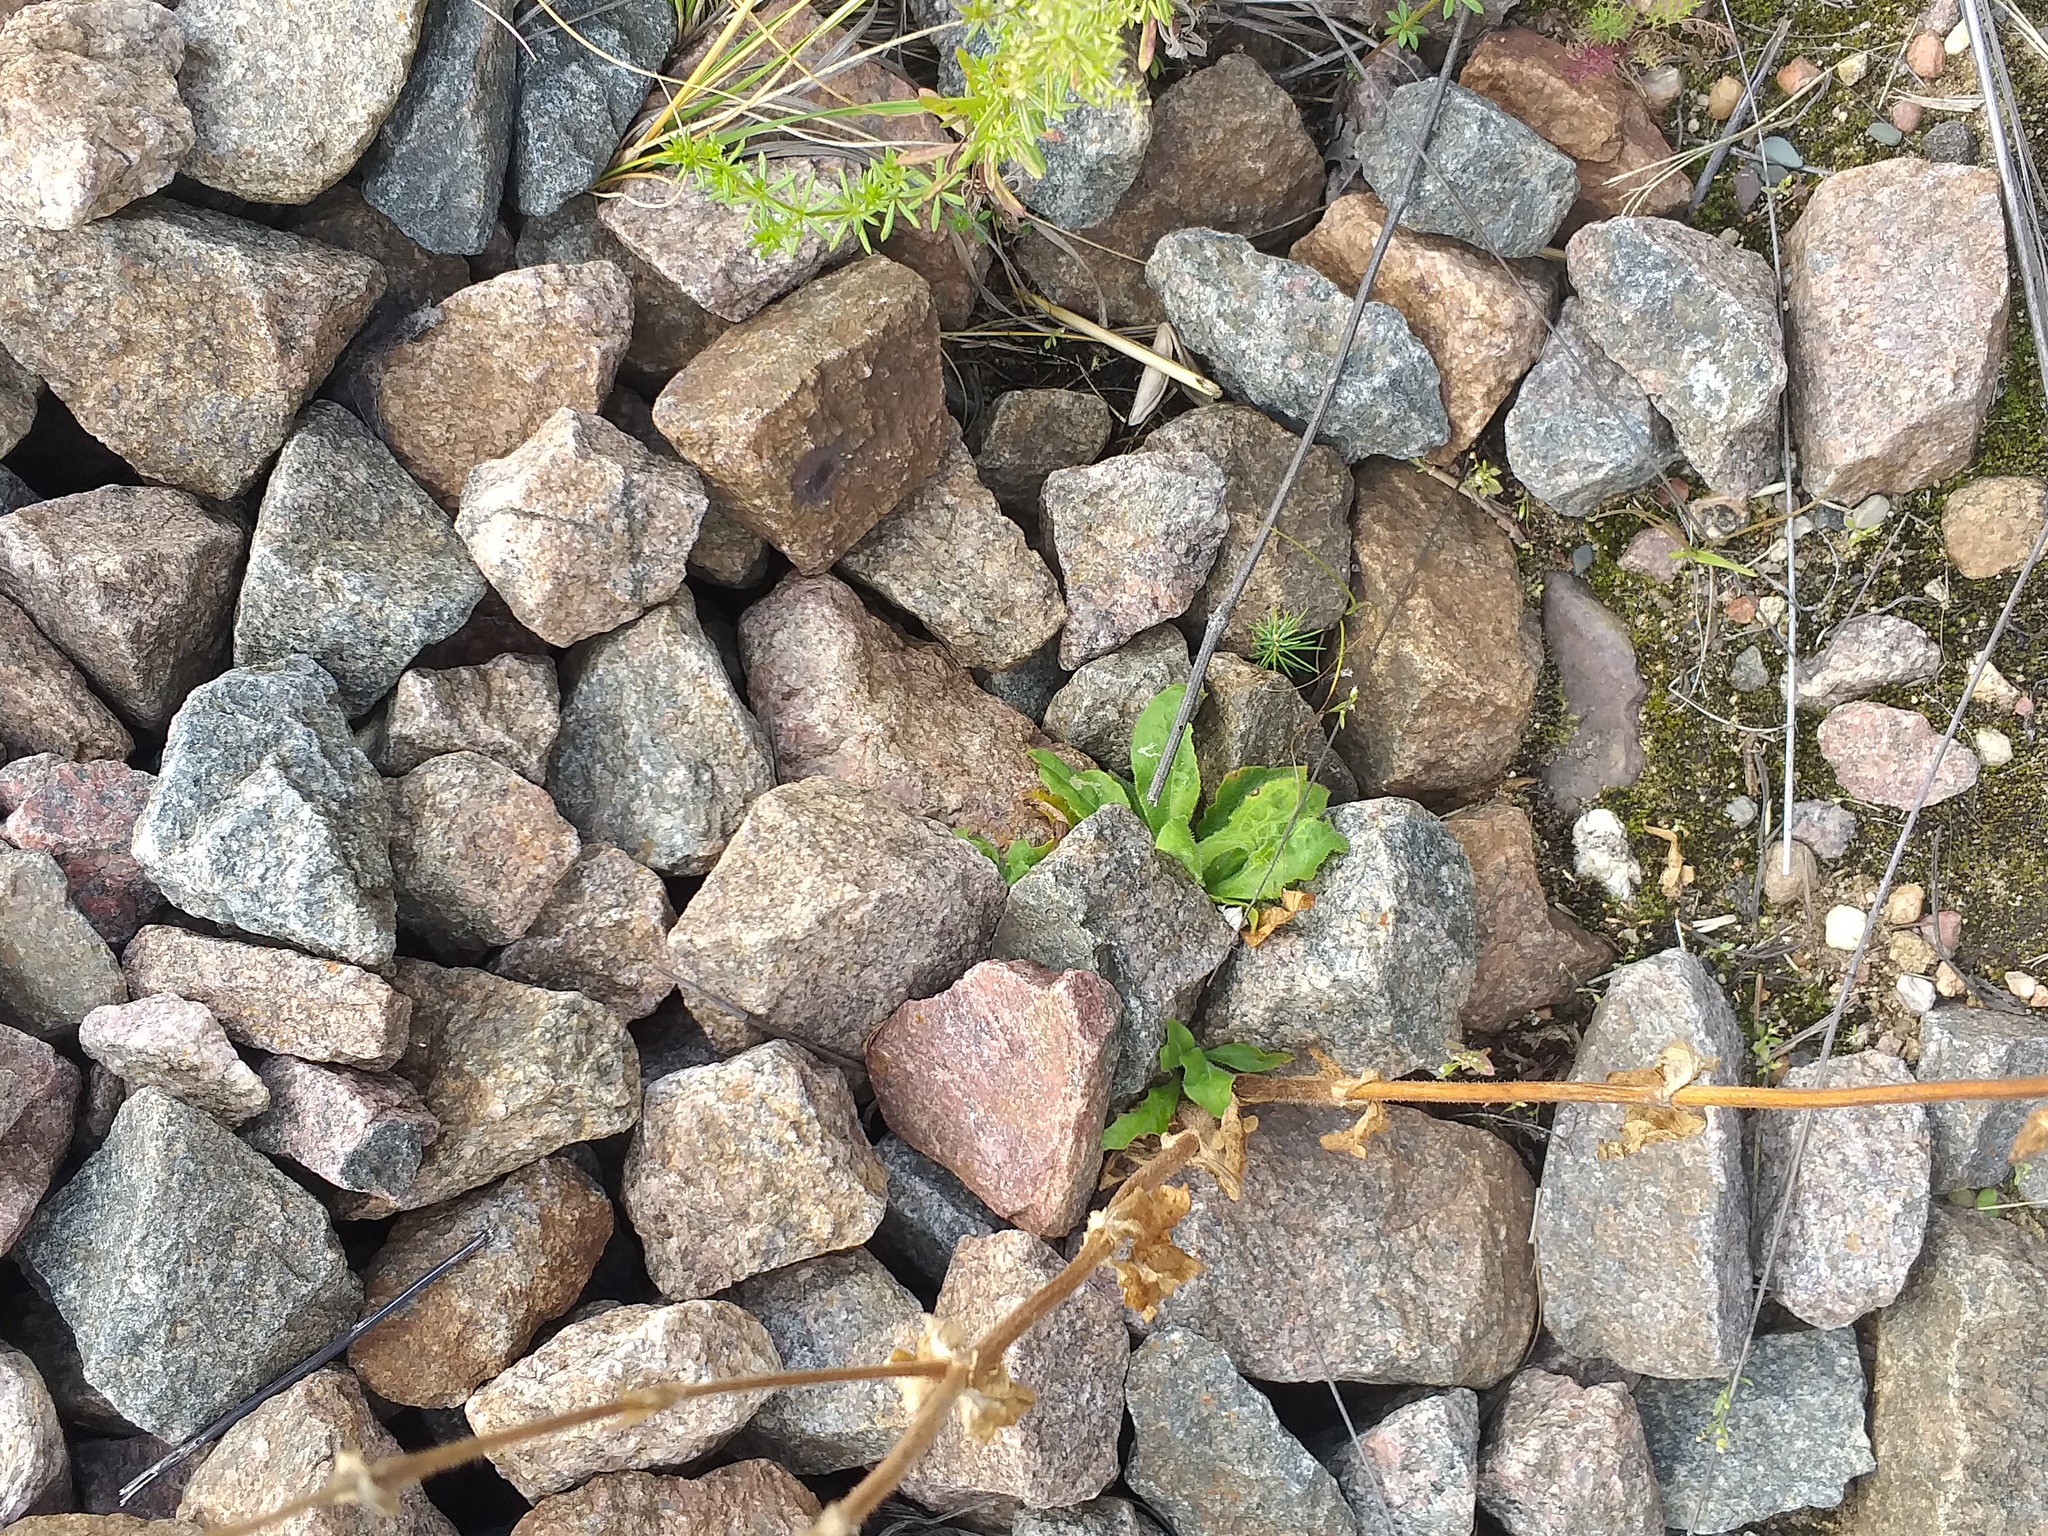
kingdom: Plantae
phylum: Tracheophyta
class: Magnoliopsida
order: Caryophyllales
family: Caryophyllaceae
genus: Silene
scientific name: Silene dioica
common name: Red campion
